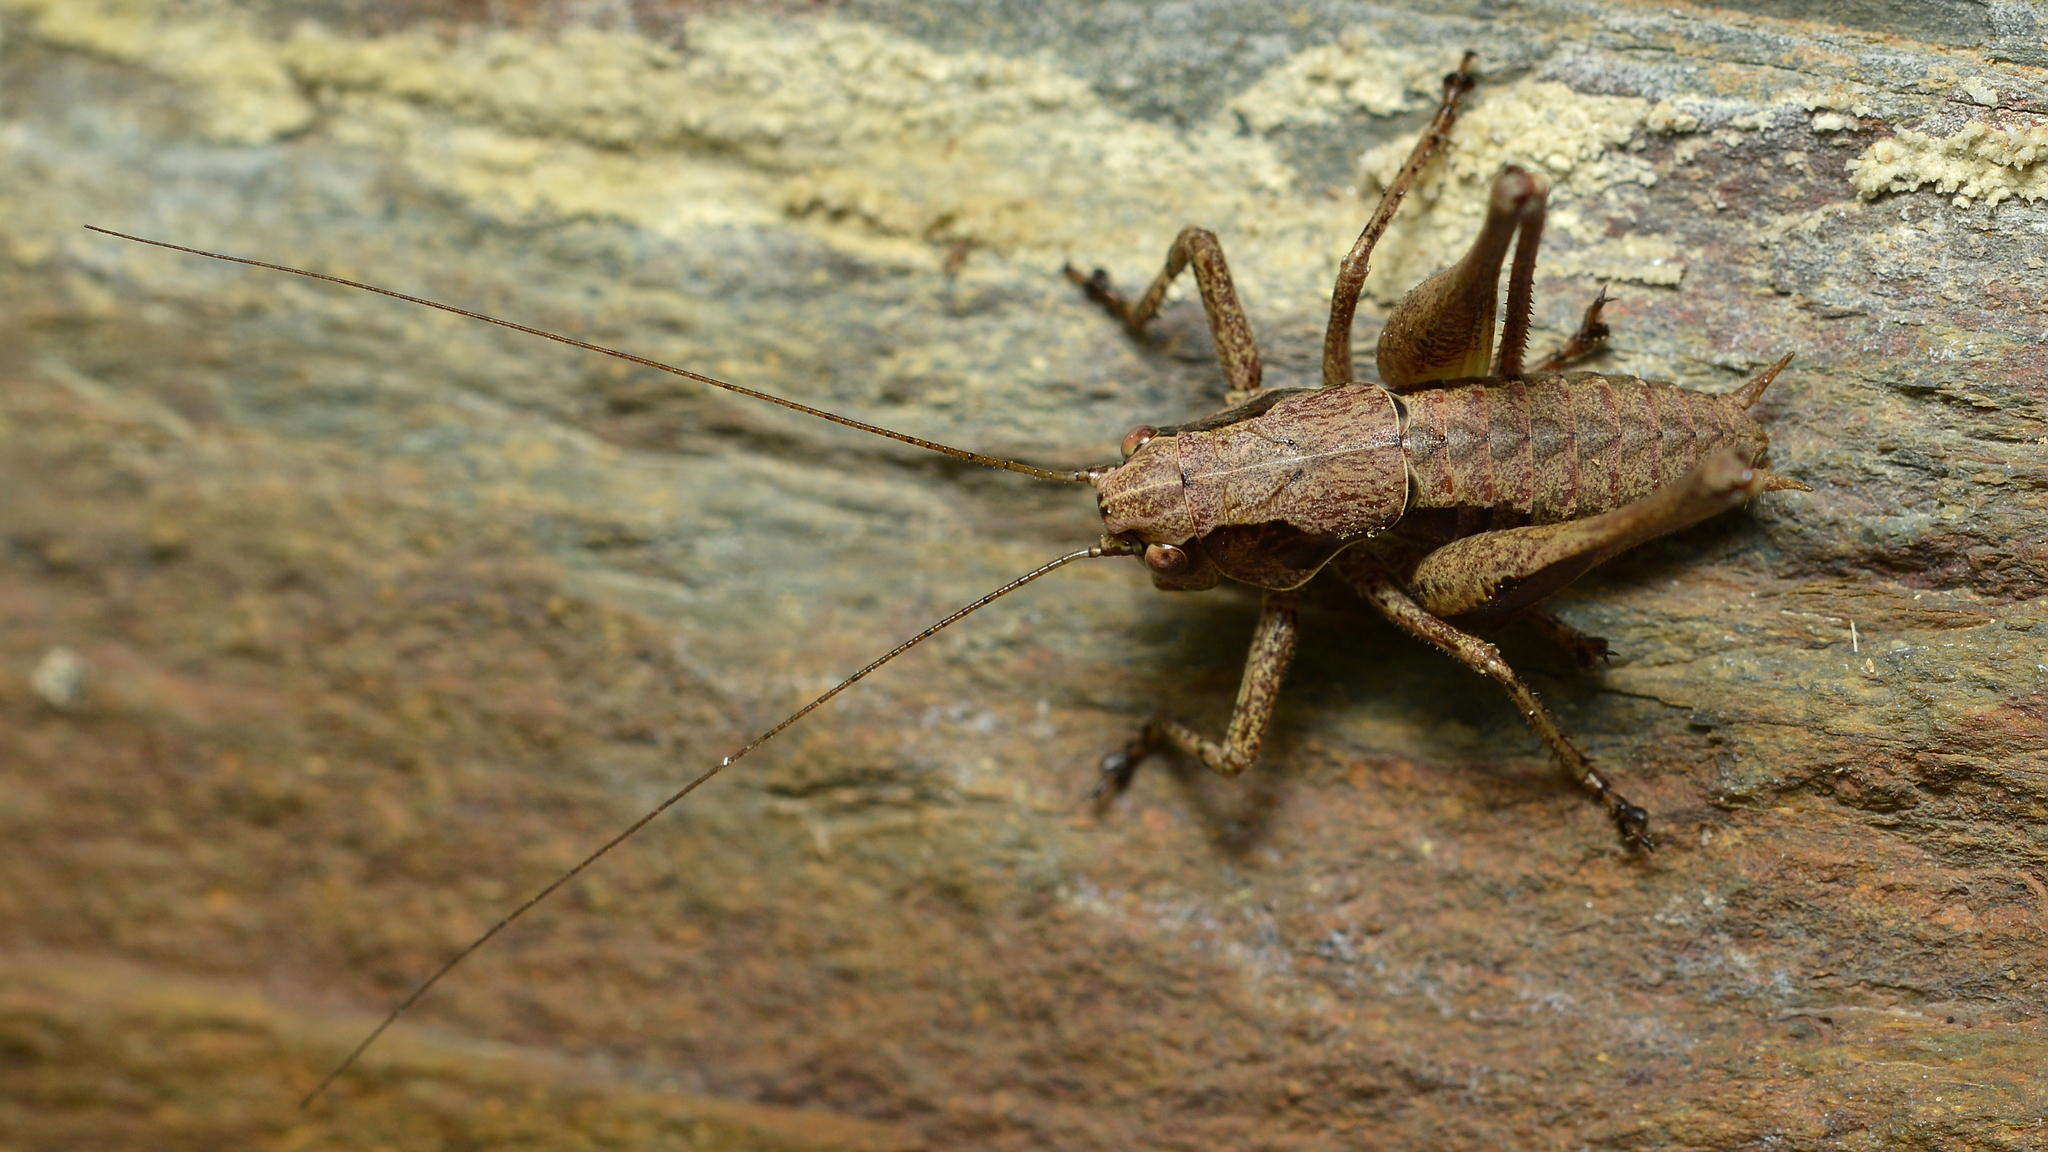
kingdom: Animalia
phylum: Arthropoda
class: Insecta
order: Orthoptera
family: Tettigoniidae
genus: Pholidoptera
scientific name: Pholidoptera griseoaptera
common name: Dark bush-cricket
